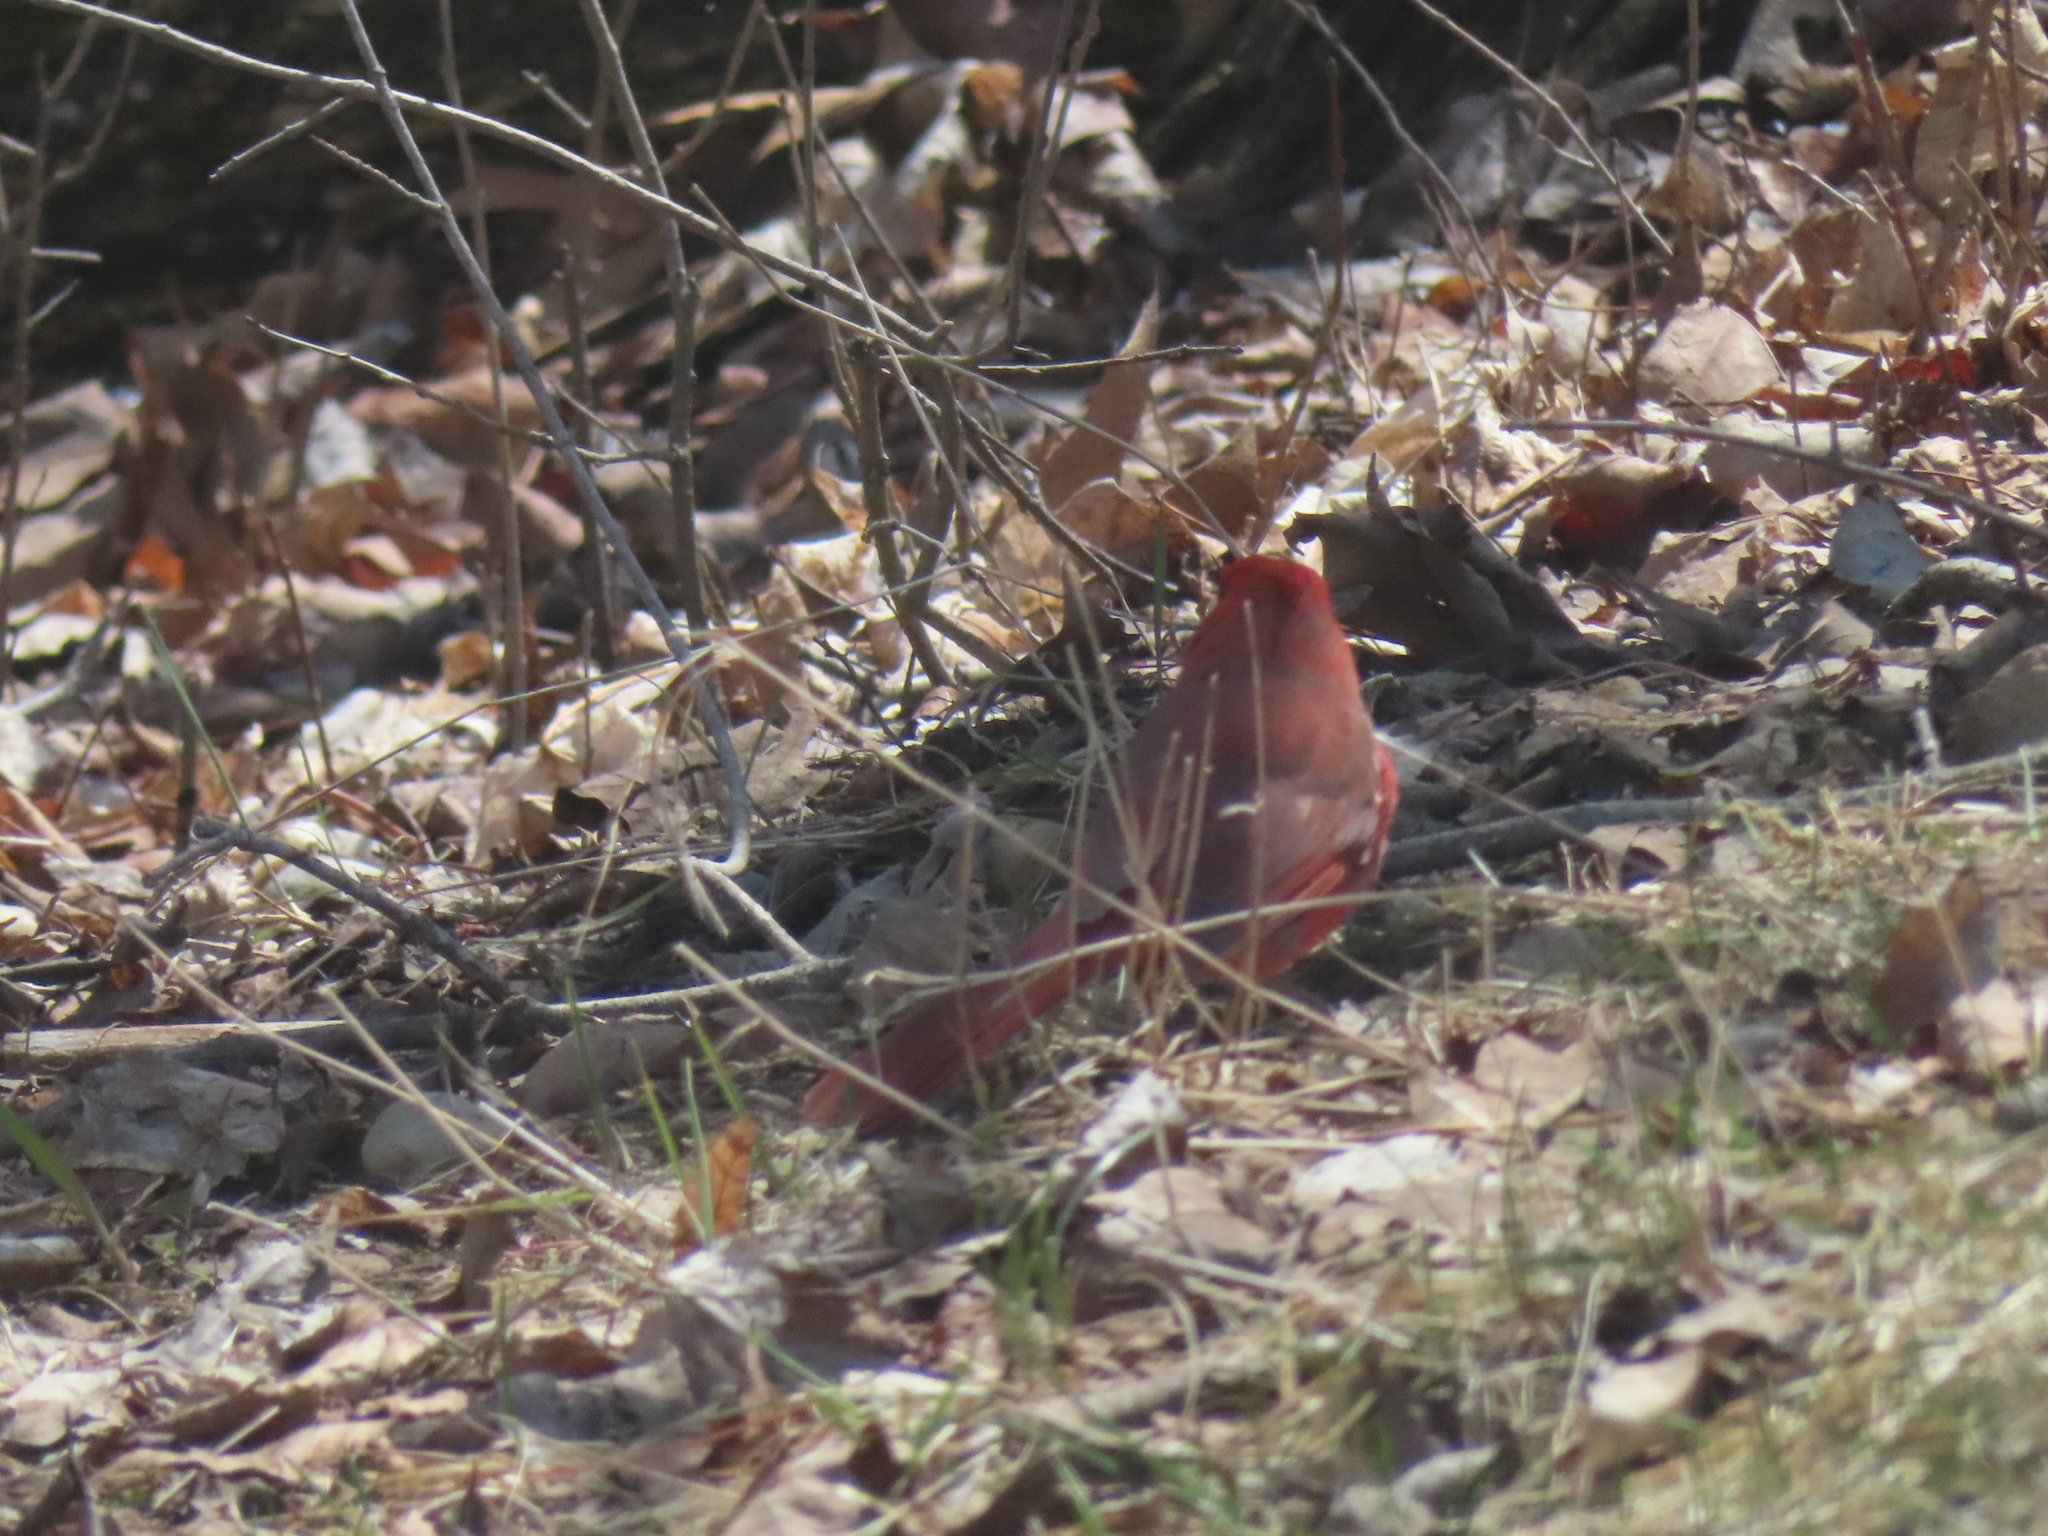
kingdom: Animalia
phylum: Chordata
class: Aves
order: Passeriformes
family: Cardinalidae
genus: Cardinalis
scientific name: Cardinalis cardinalis
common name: Northern cardinal
